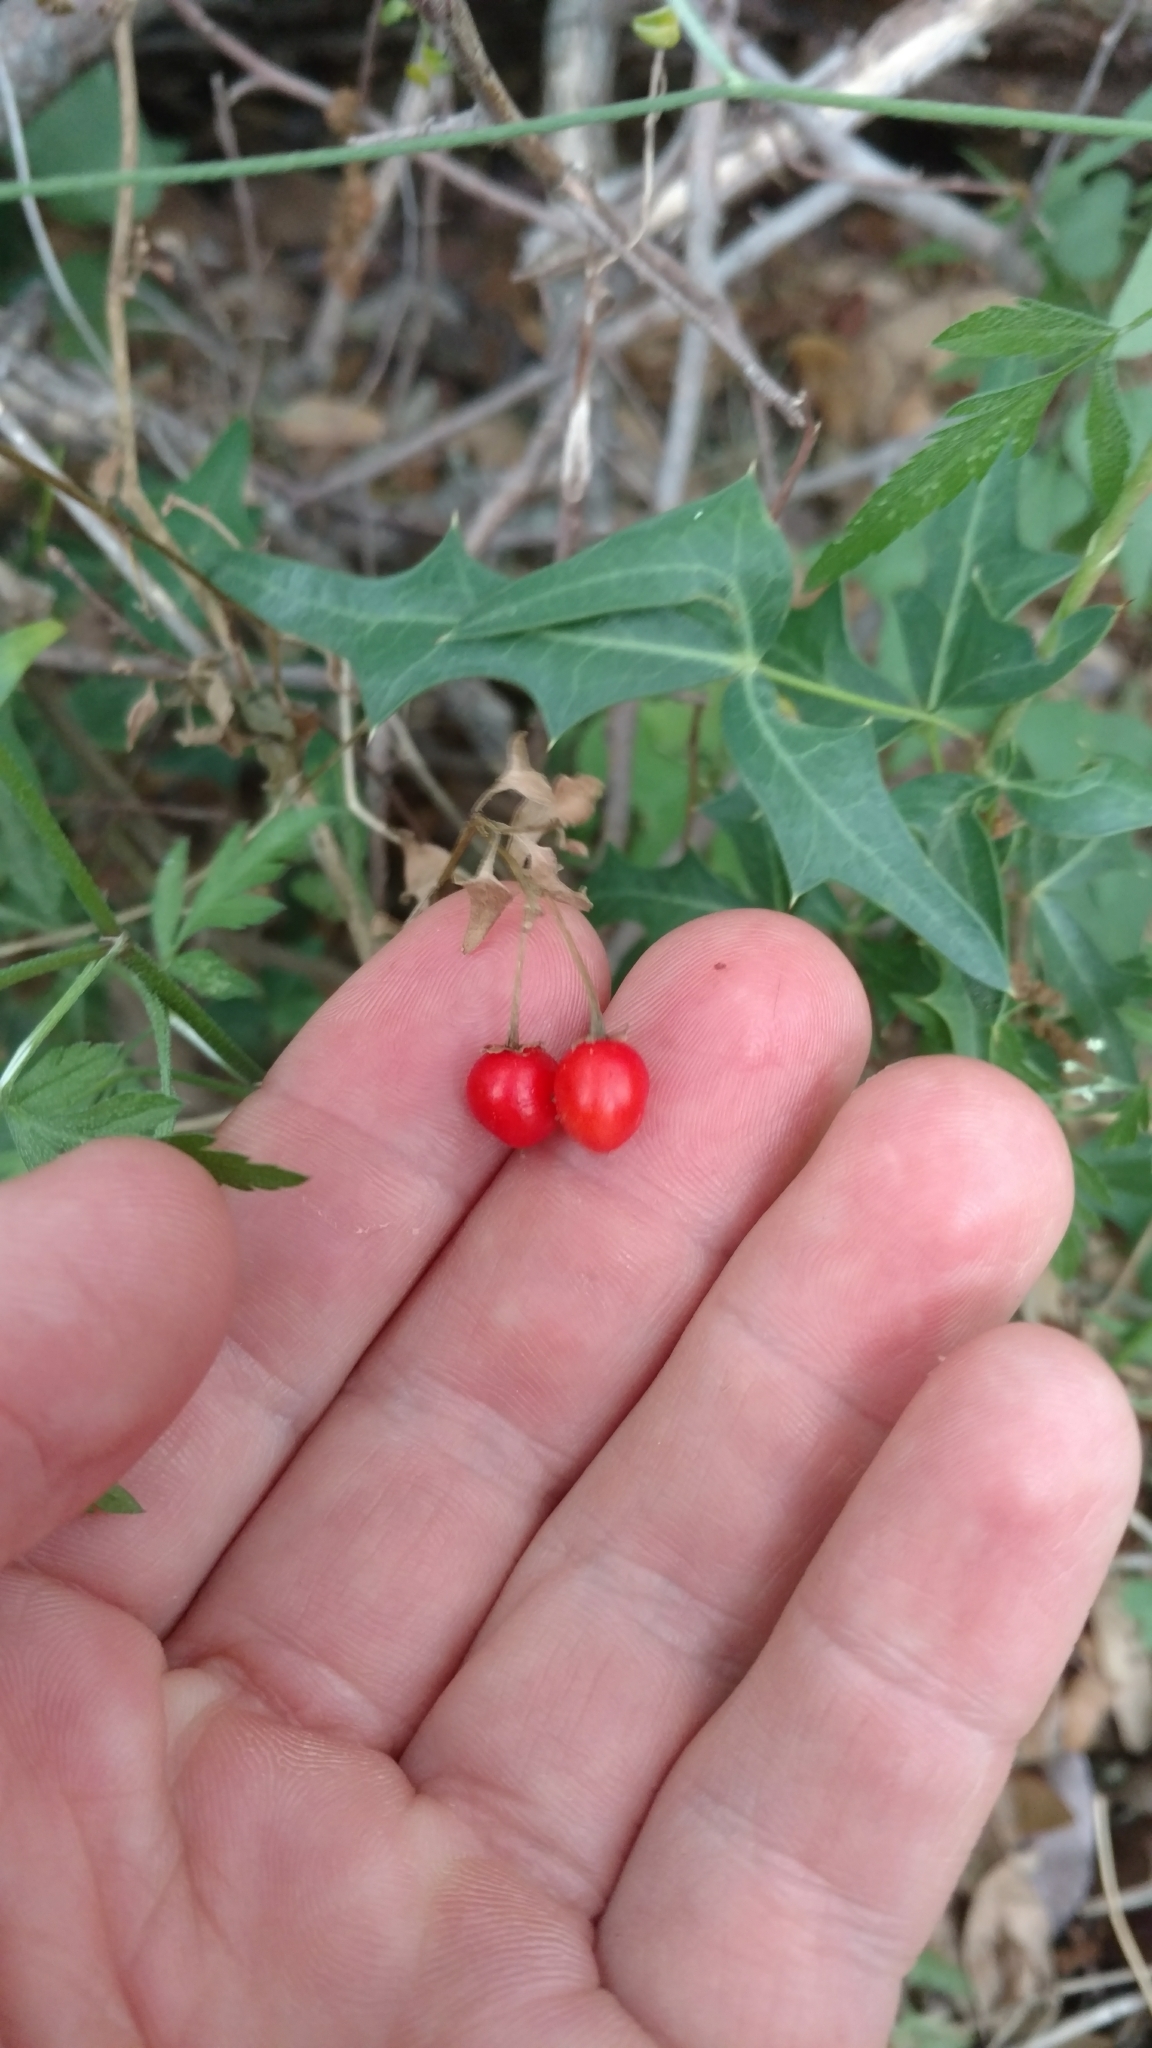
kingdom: Plantae
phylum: Tracheophyta
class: Magnoliopsida
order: Solanales
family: Solanaceae
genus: Solanum
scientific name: Solanum triquetrum
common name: Texas nightshade
